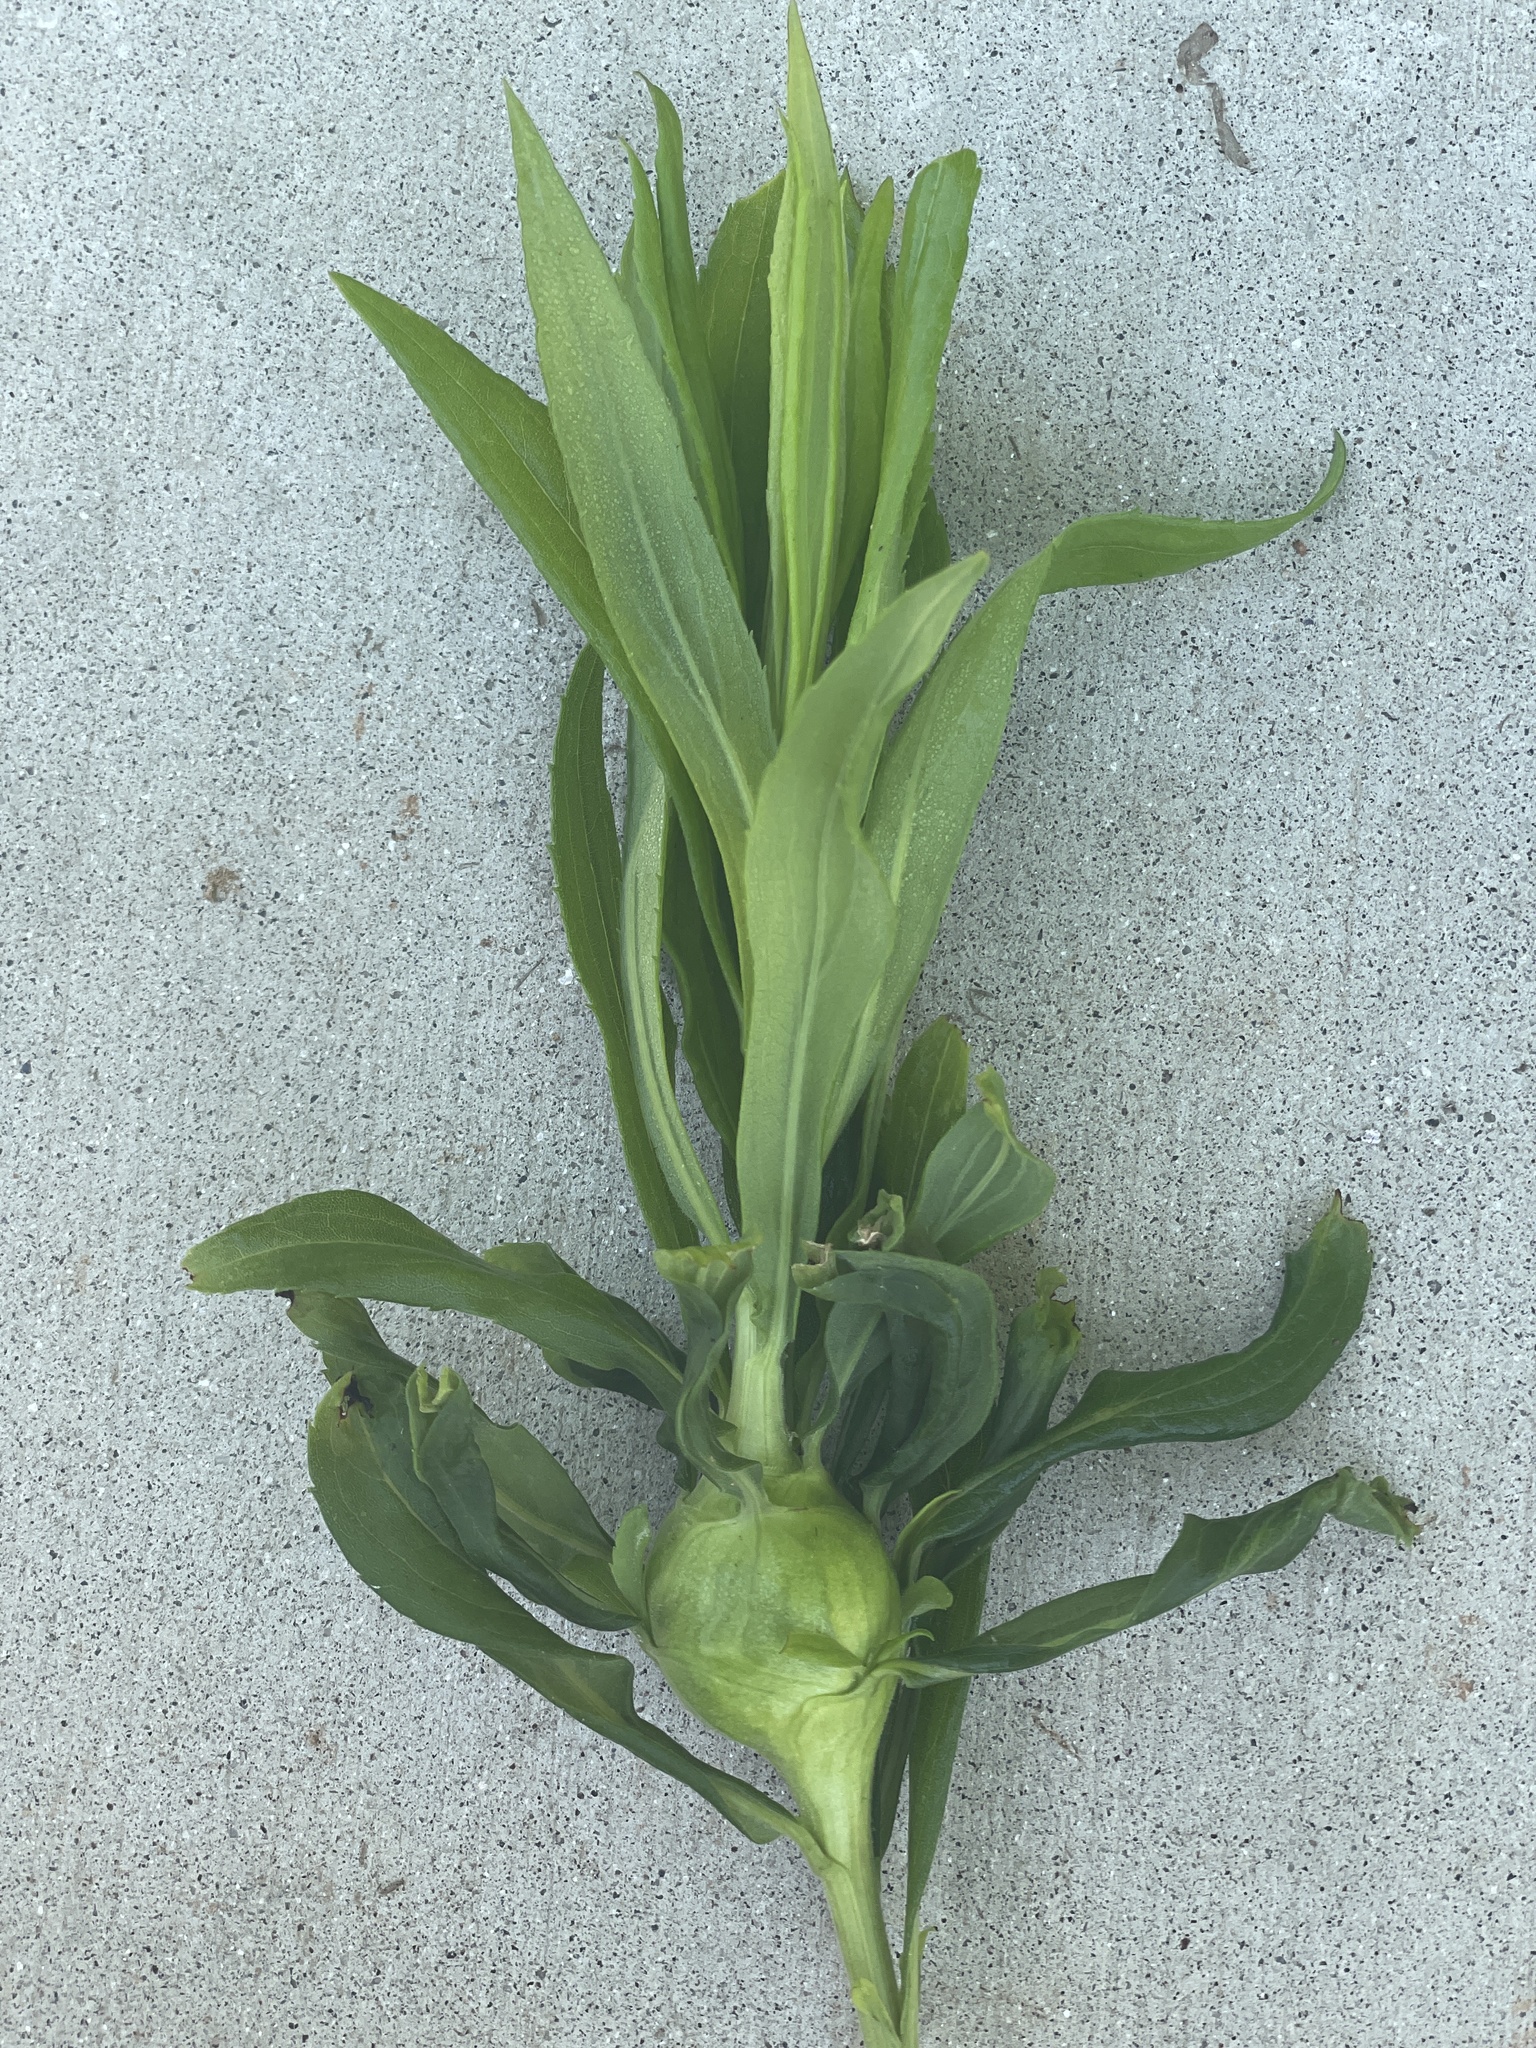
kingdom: Animalia
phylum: Arthropoda
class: Insecta
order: Diptera
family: Tephritidae
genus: Eurosta
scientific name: Eurosta solidaginis
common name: Goldenrod gall fly
